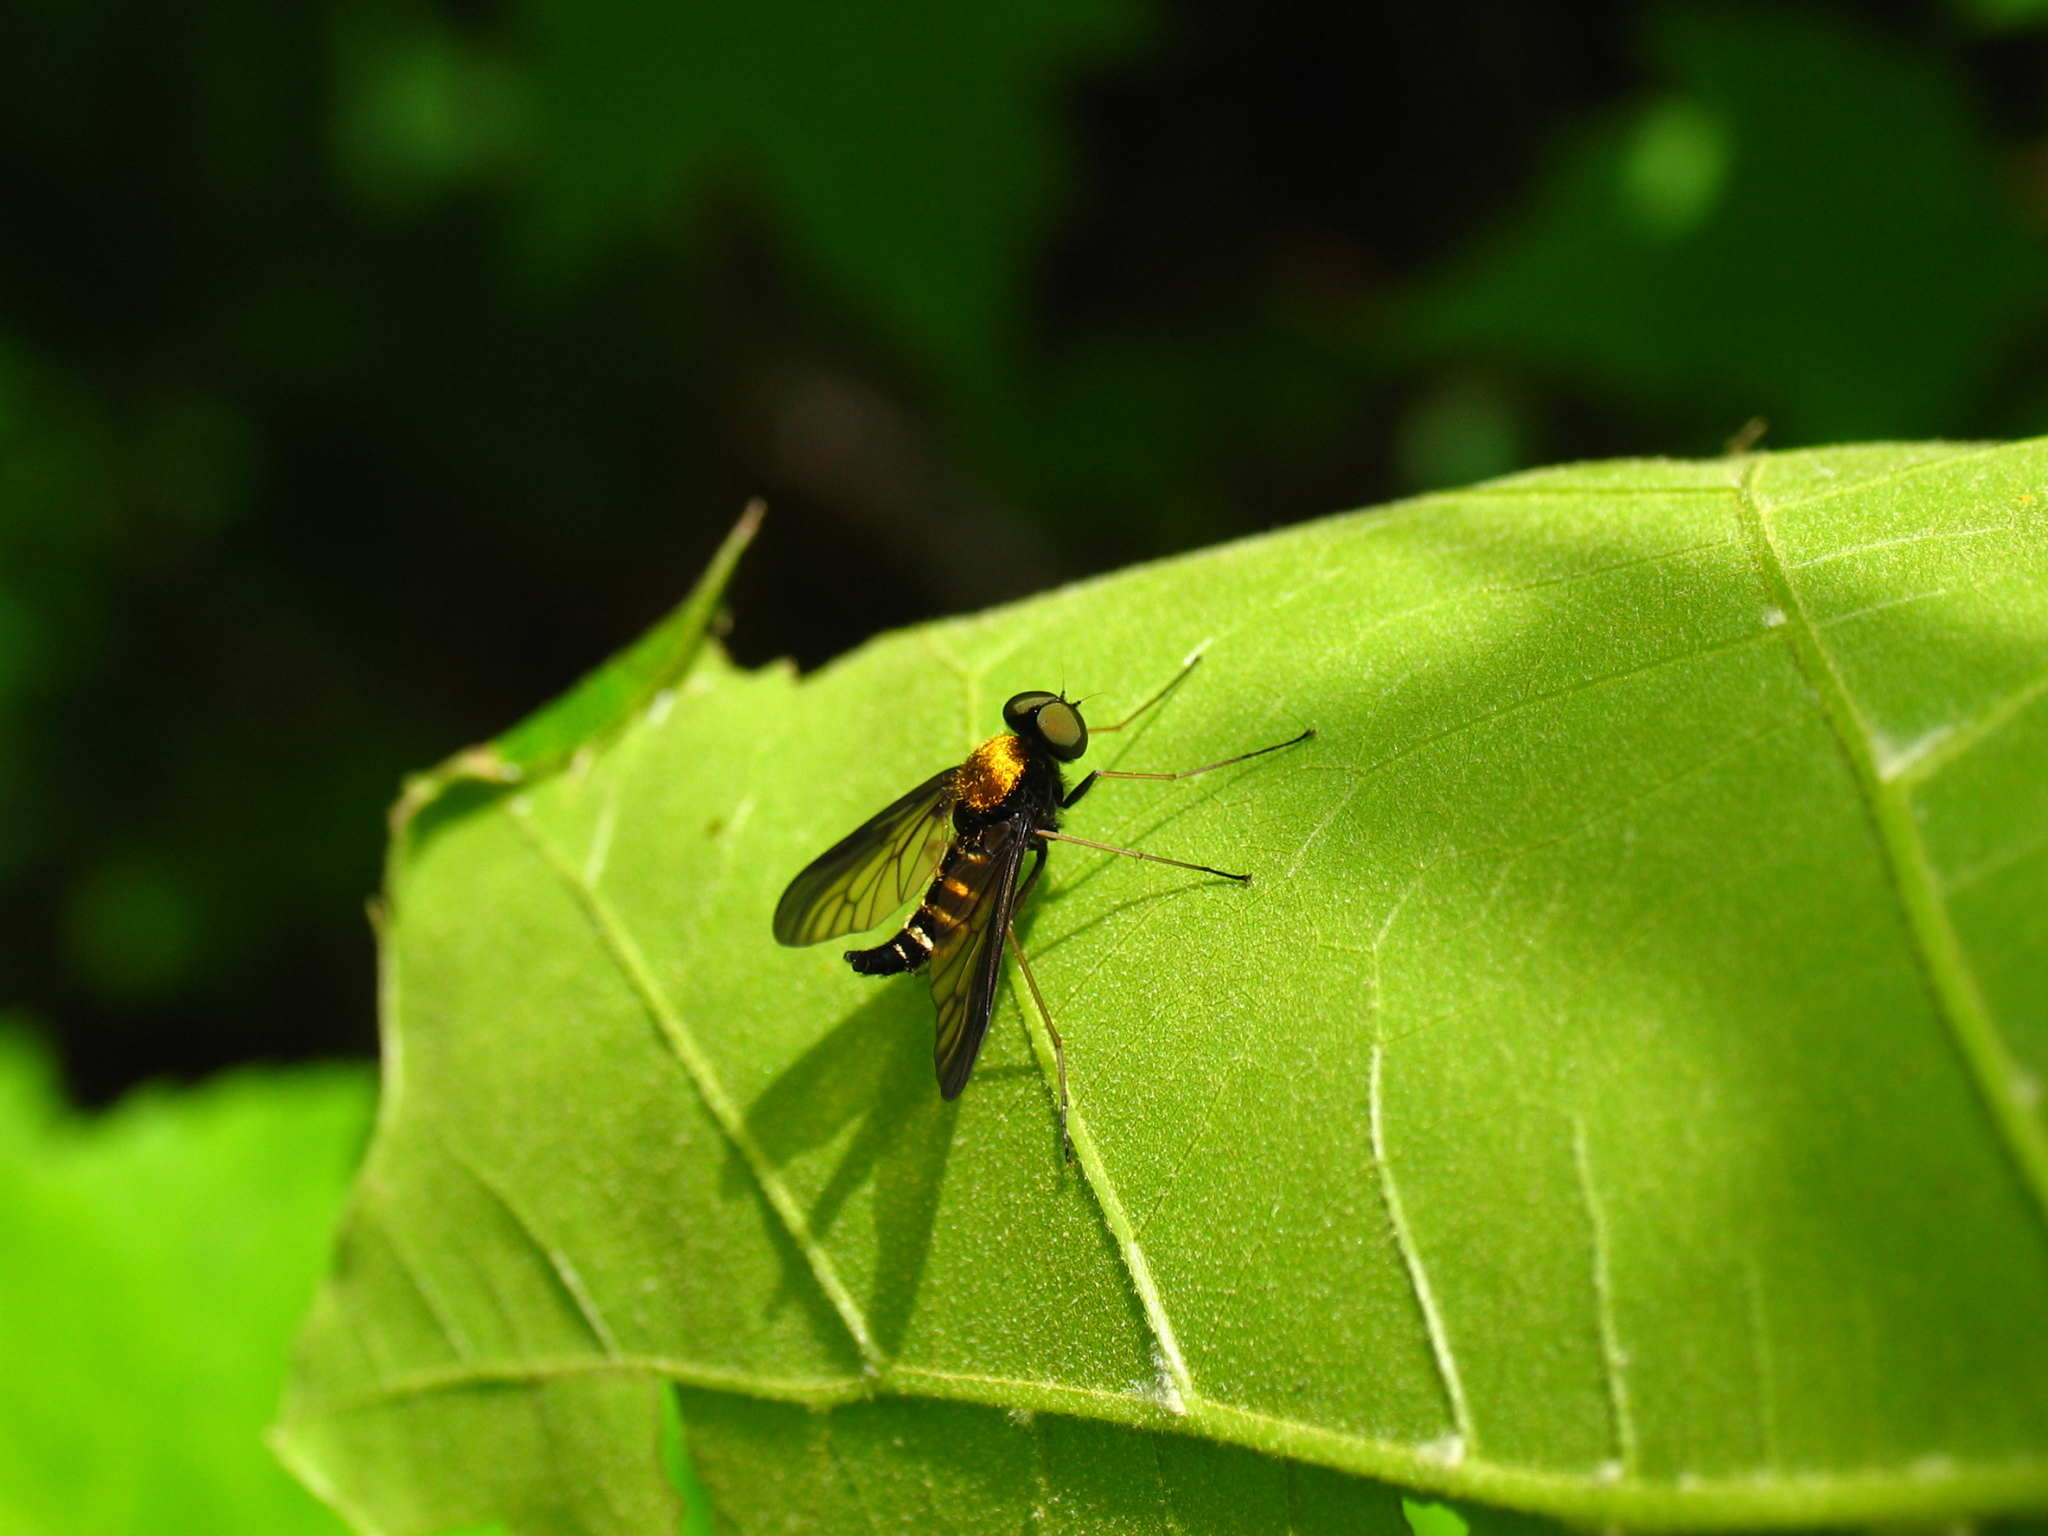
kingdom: Animalia
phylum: Arthropoda
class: Insecta
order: Diptera
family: Rhagionidae
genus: Chrysopilus
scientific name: Chrysopilus thoracicus
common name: Golden-backed snipe fly
